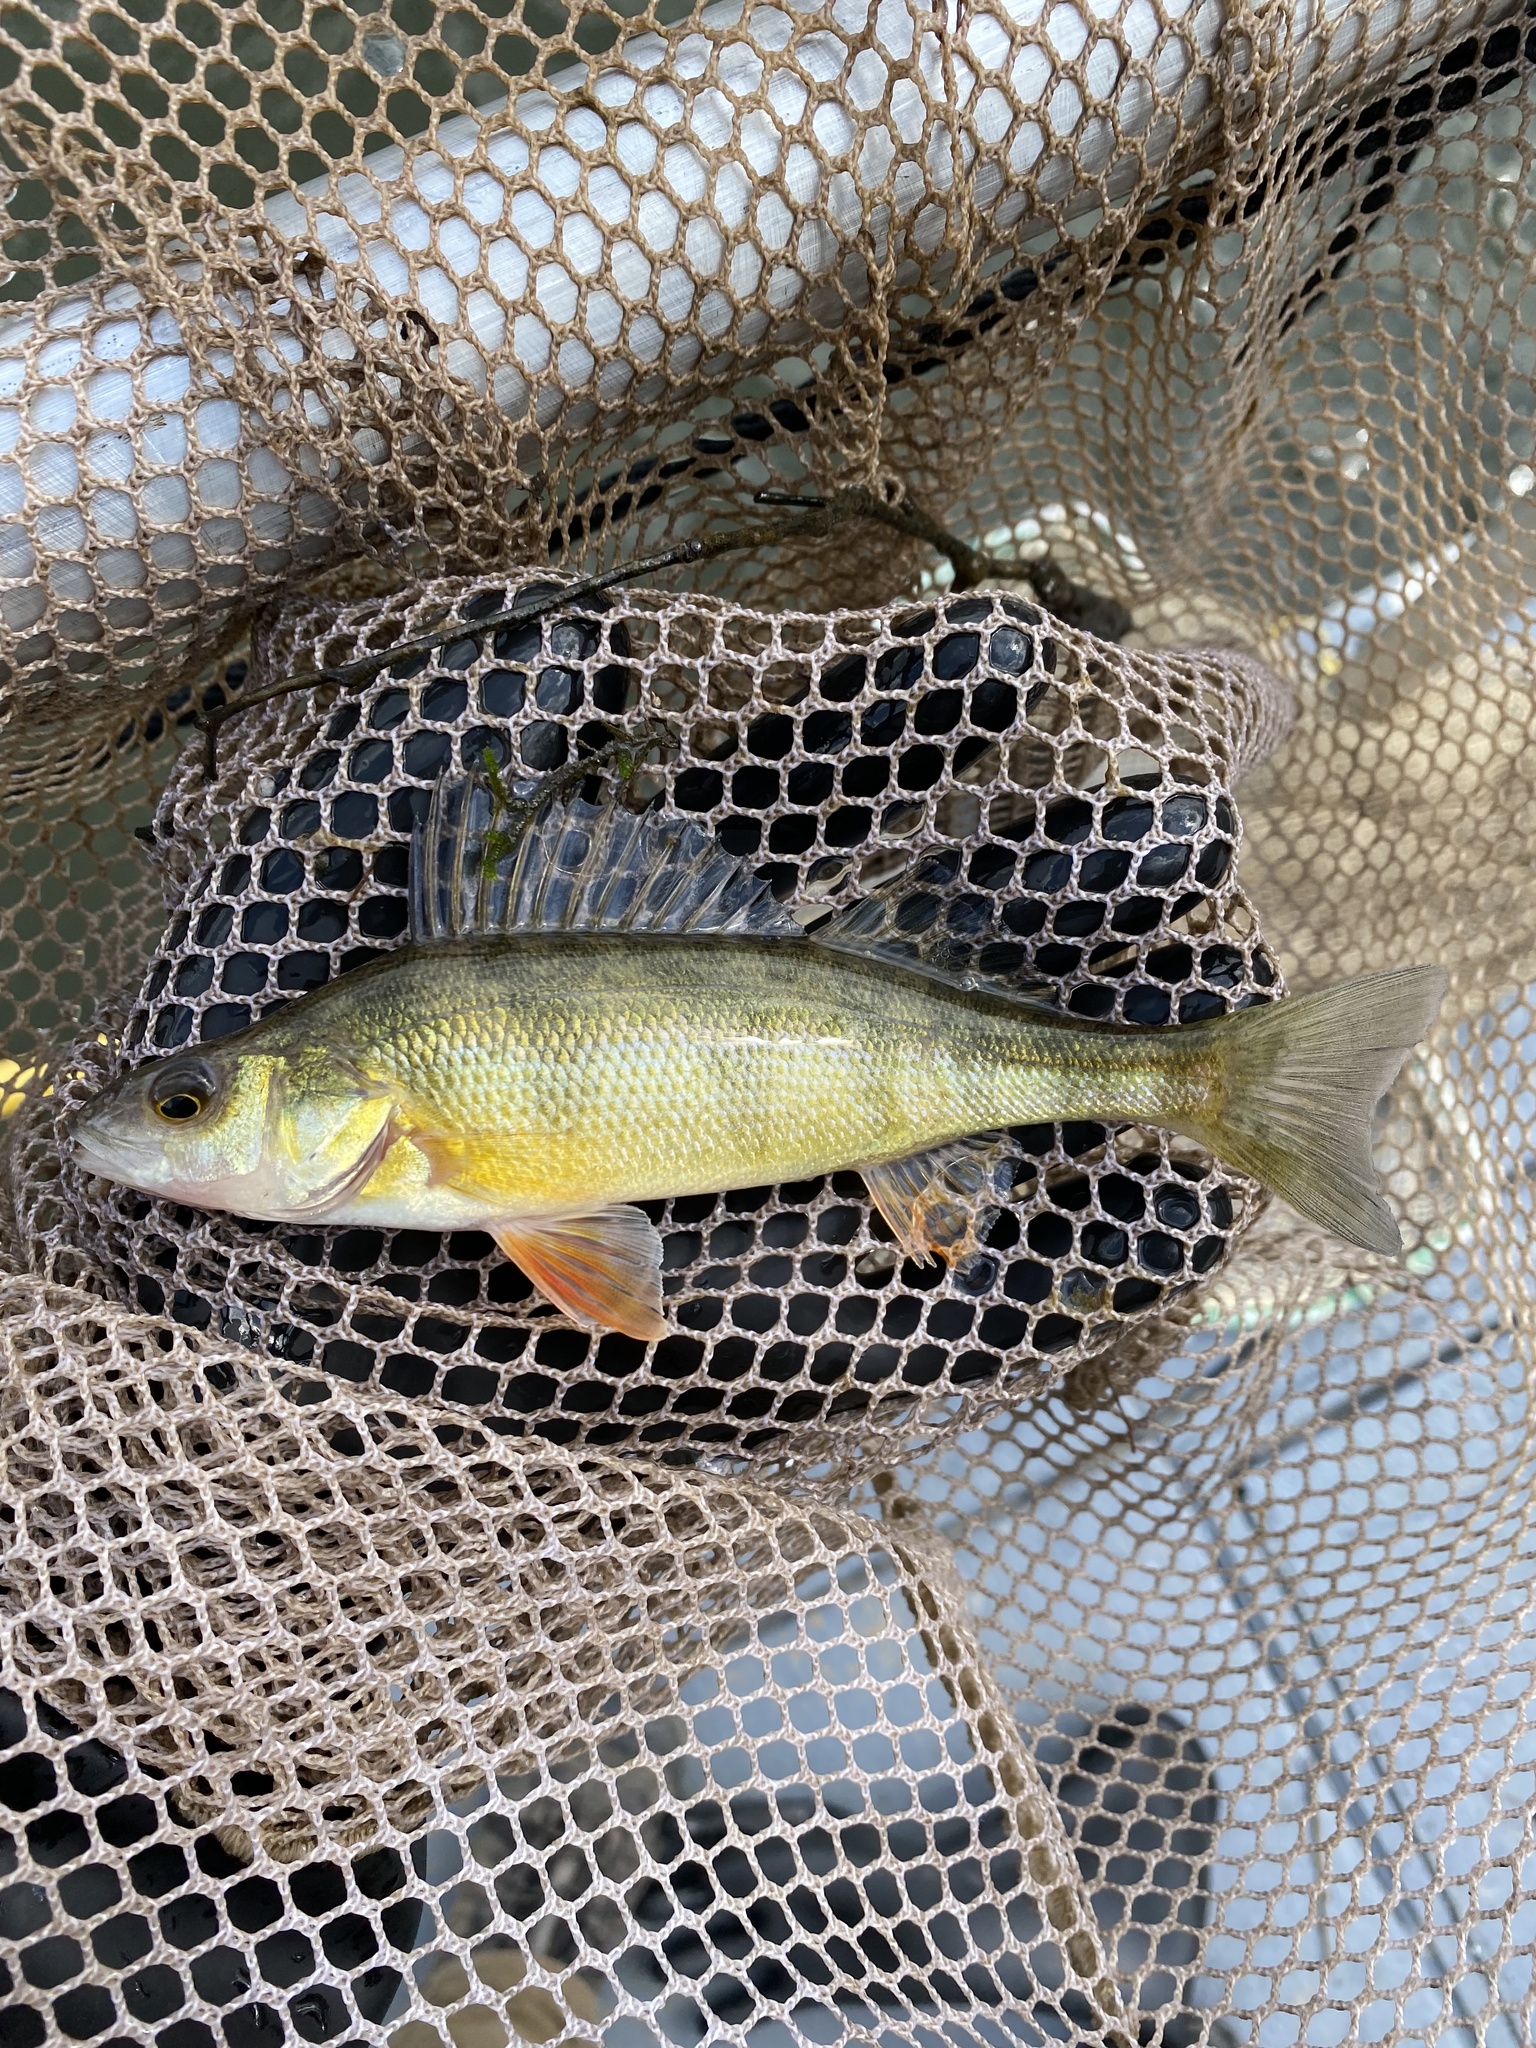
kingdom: Animalia
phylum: Chordata
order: Perciformes
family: Percidae
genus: Perca
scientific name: Perca flavescens
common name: Yellow perch
